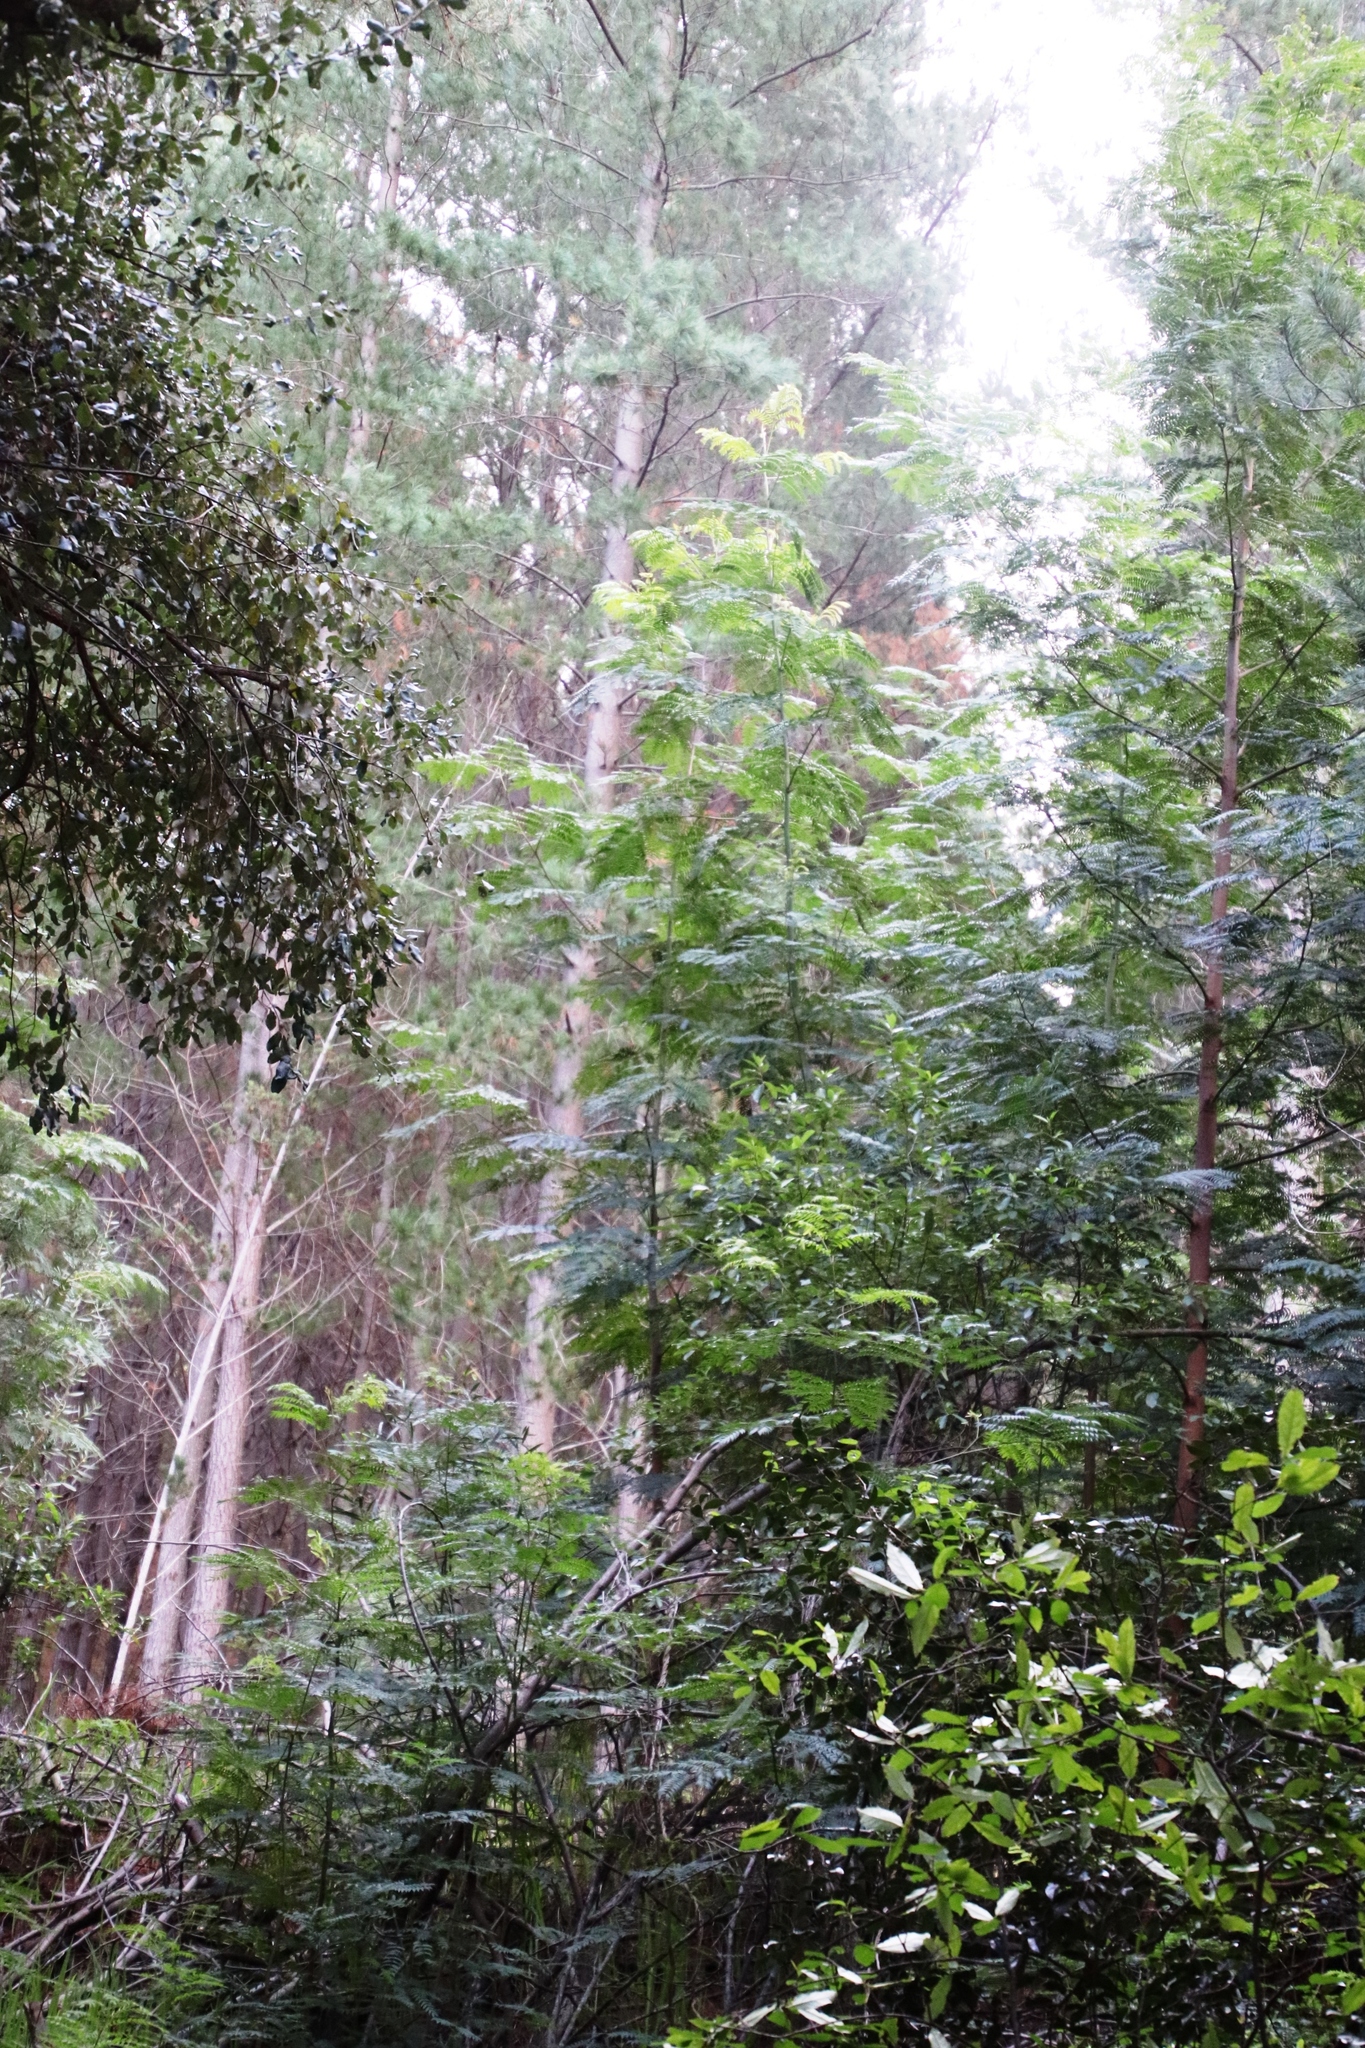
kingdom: Plantae
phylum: Tracheophyta
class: Magnoliopsida
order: Fabales
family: Fabaceae
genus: Acacia
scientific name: Acacia elata
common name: Cedar wattle
